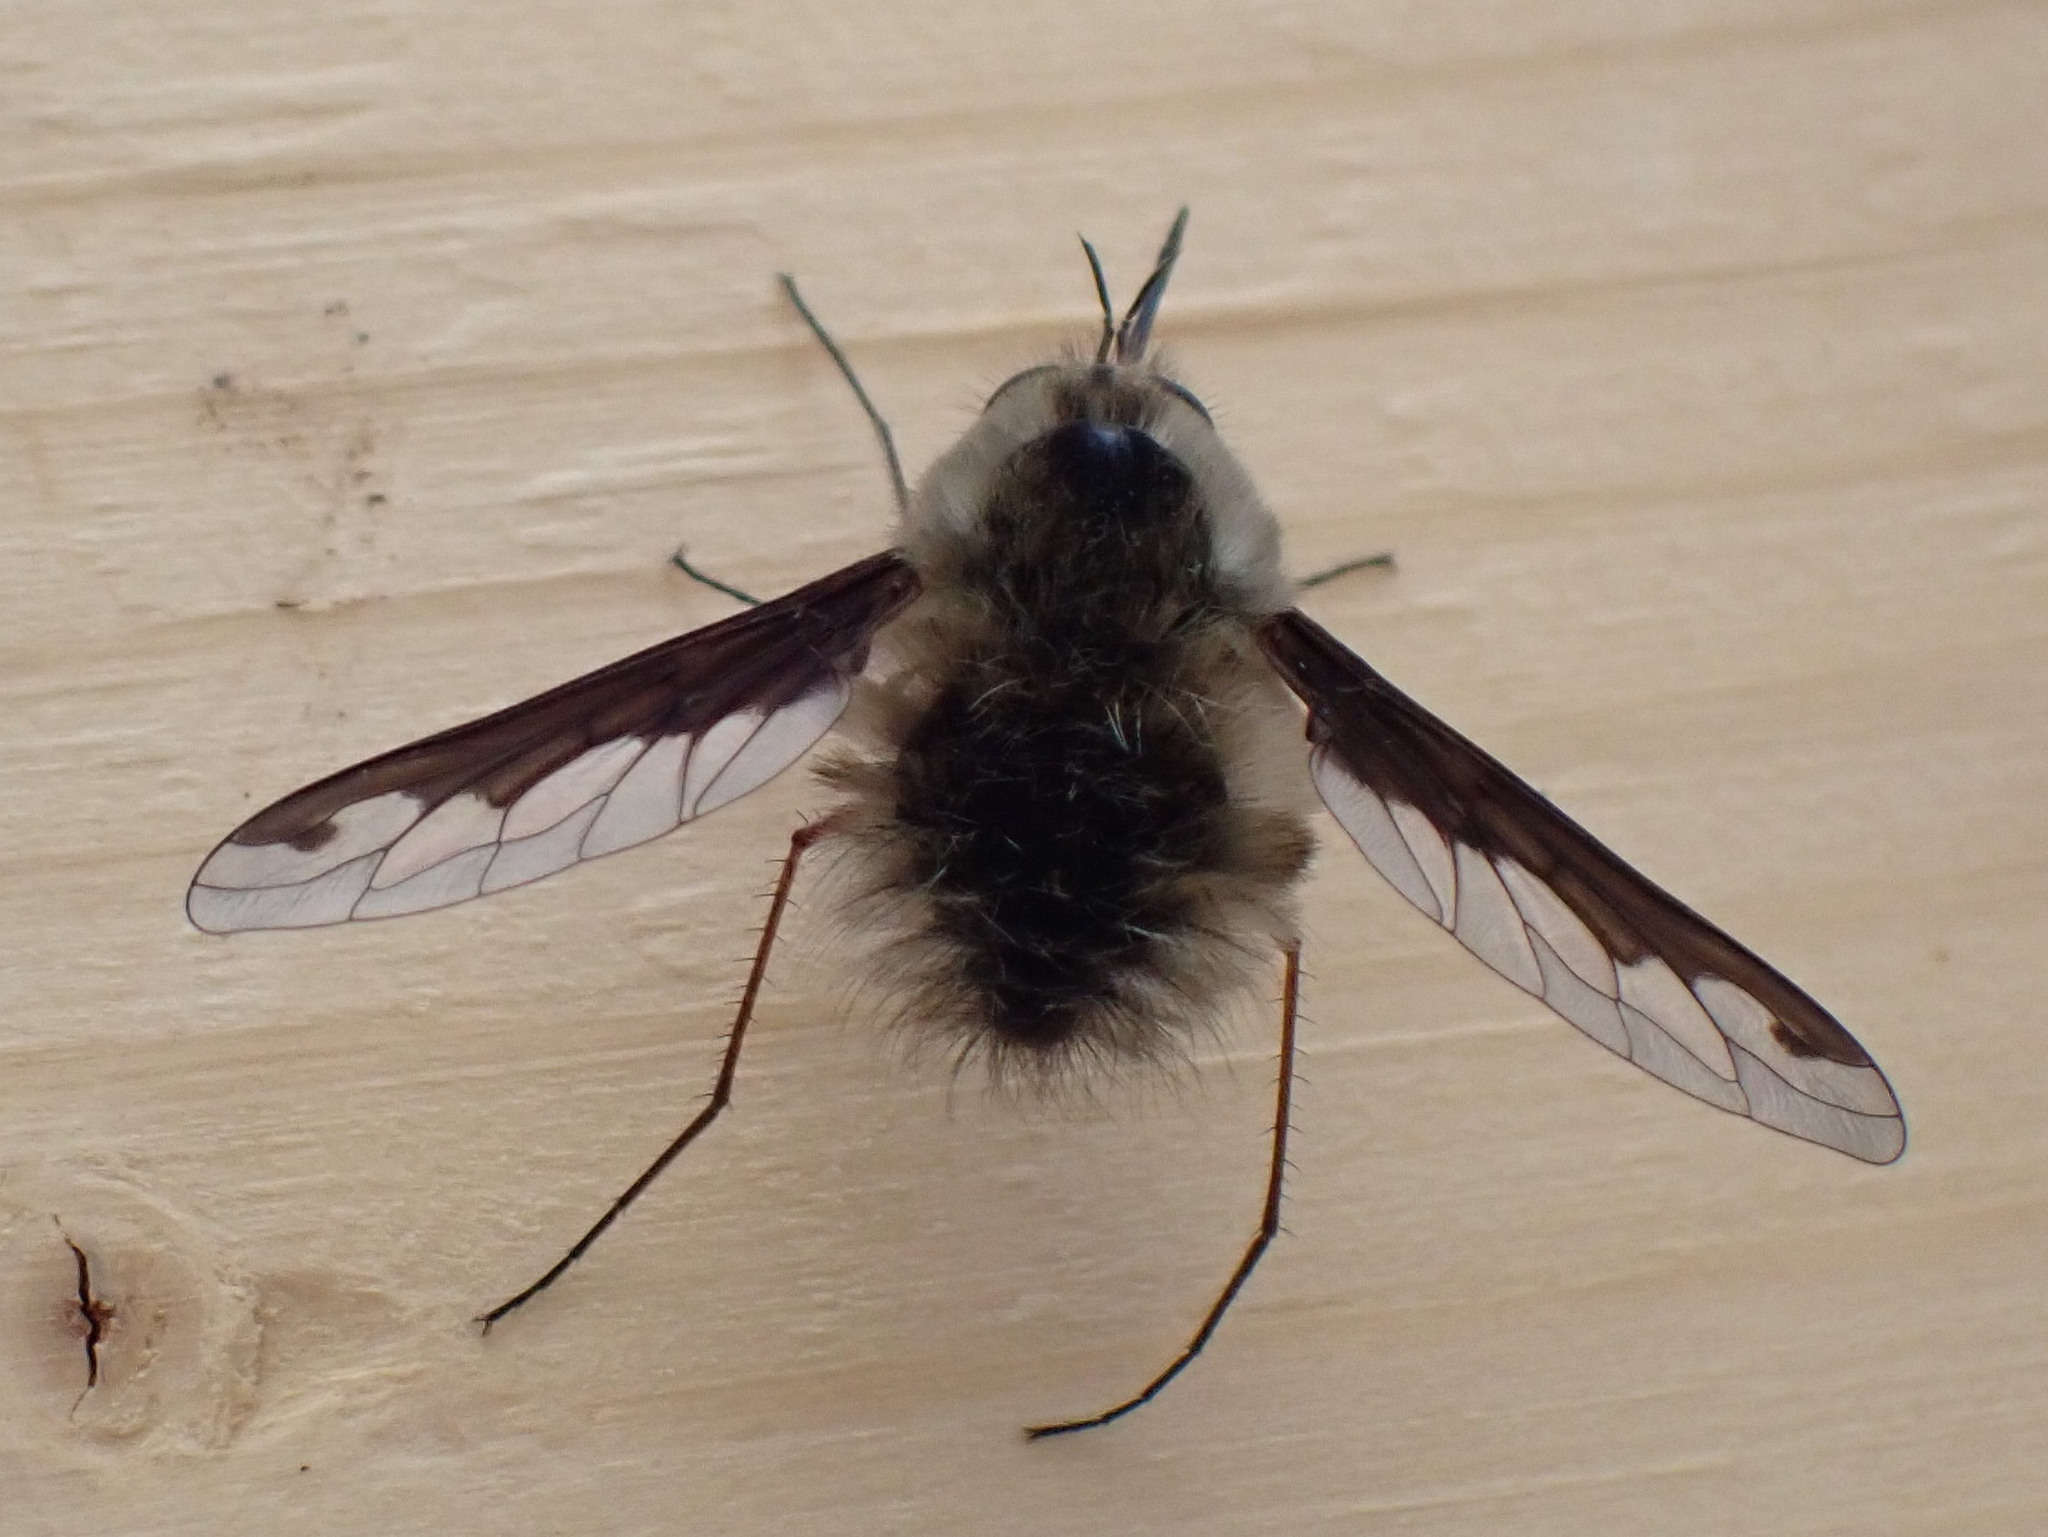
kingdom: Animalia
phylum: Arthropoda
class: Insecta
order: Diptera
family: Bombyliidae
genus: Bombylius
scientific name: Bombylius major
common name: Bee fly
